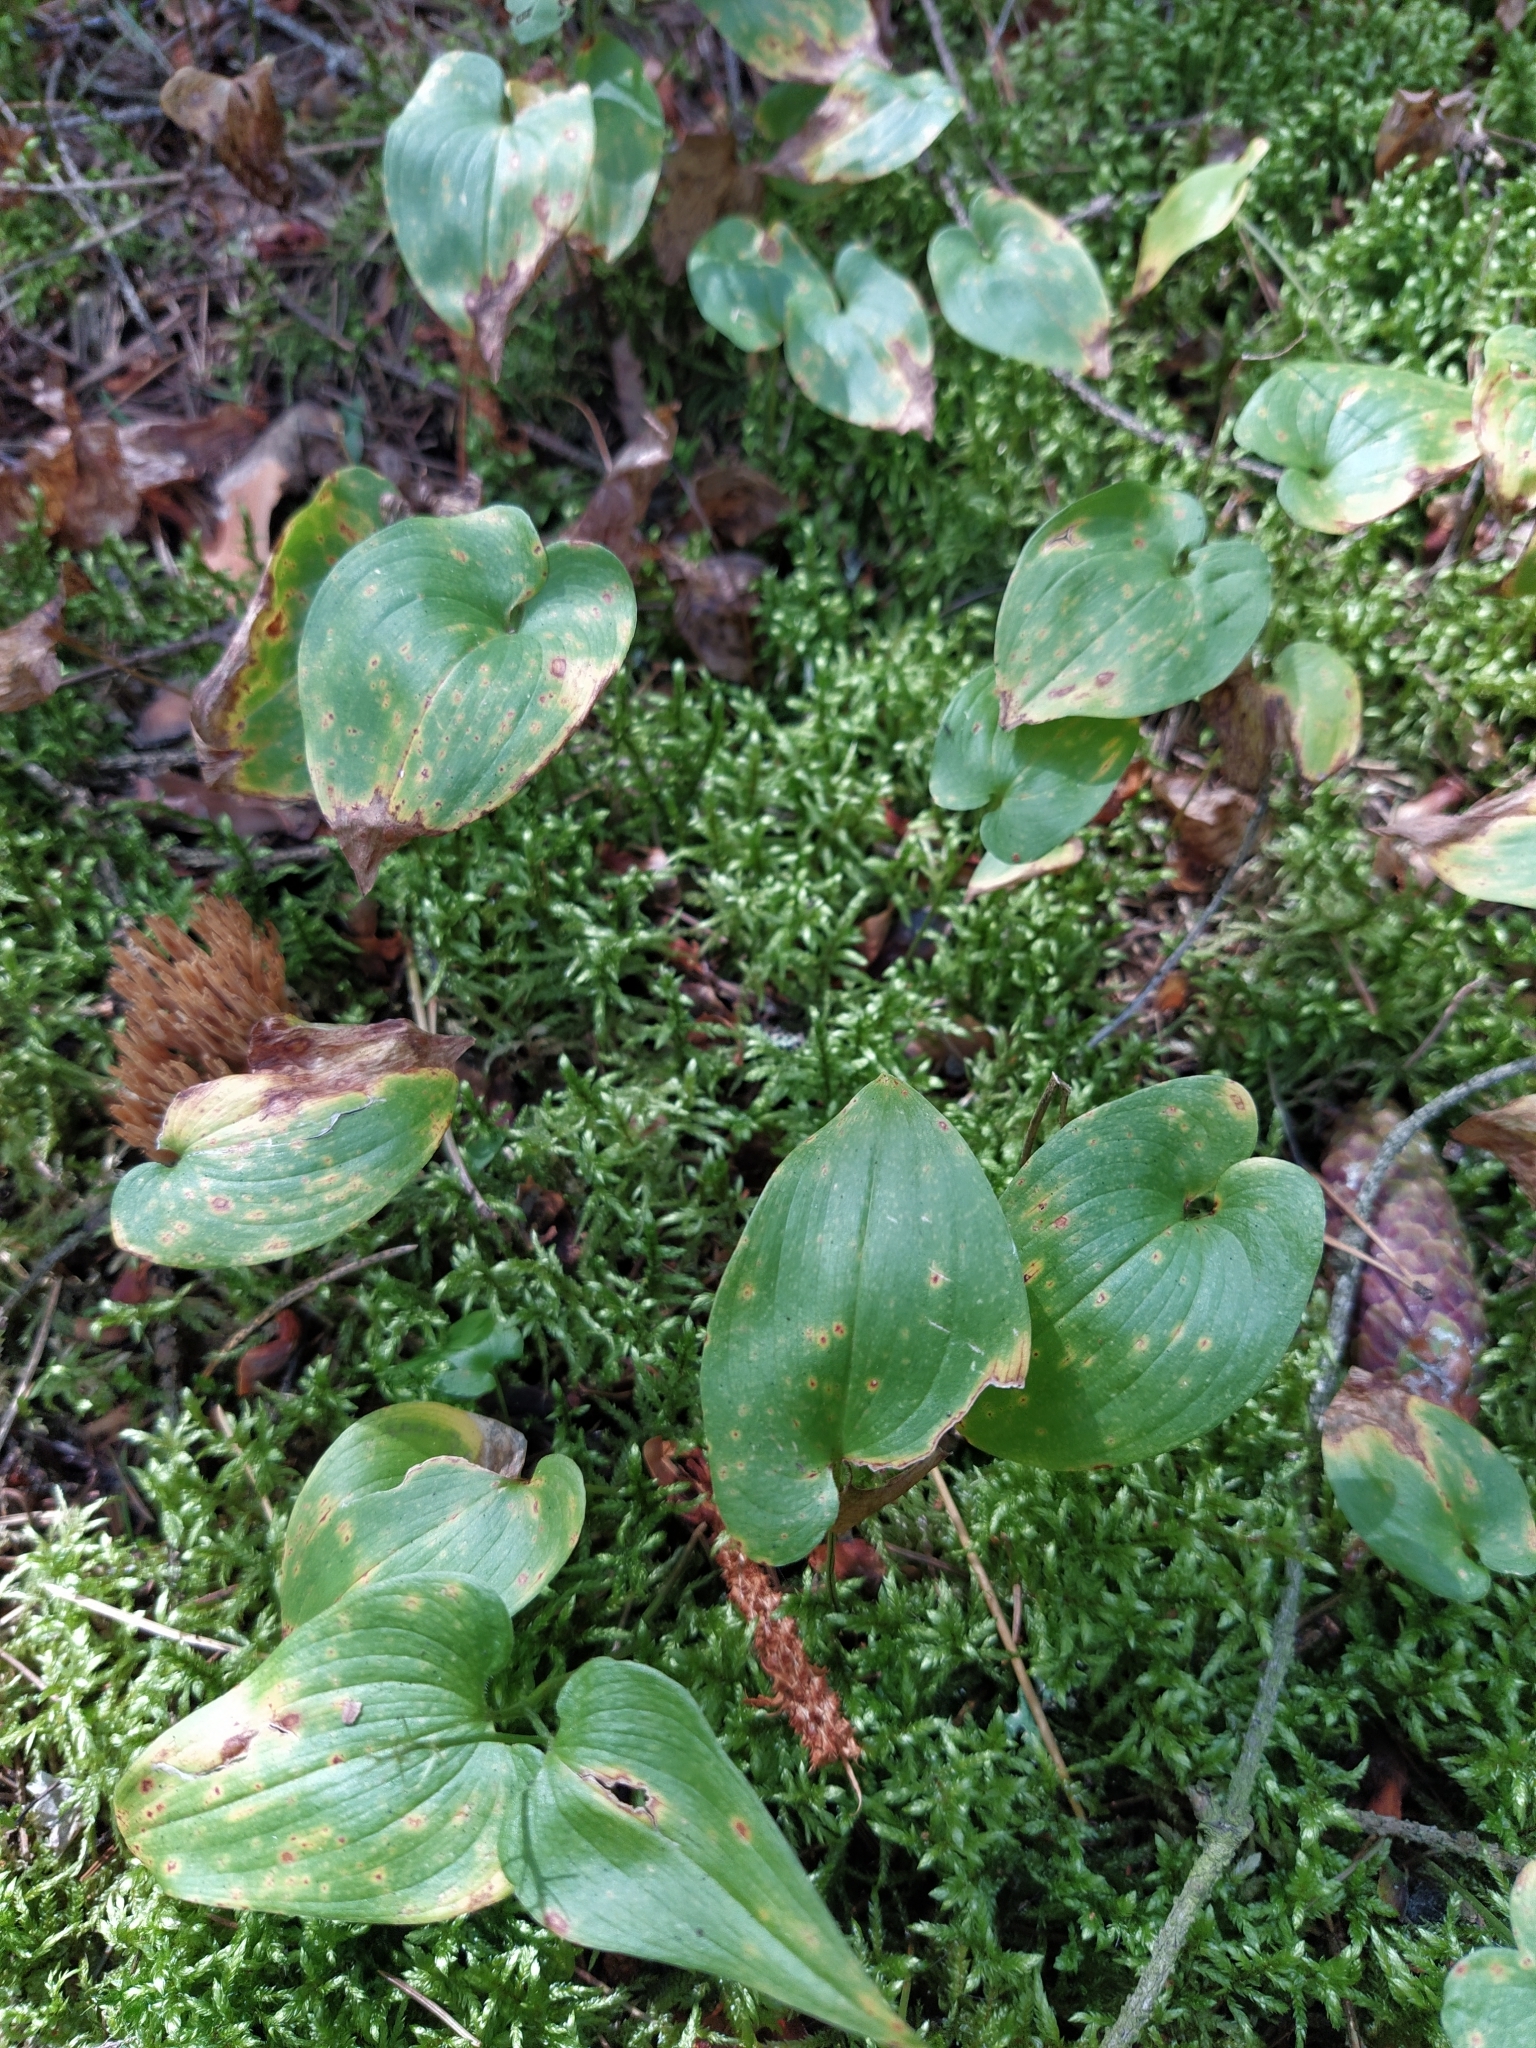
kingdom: Plantae
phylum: Tracheophyta
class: Liliopsida
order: Asparagales
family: Asparagaceae
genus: Maianthemum
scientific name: Maianthemum bifolium
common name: May lily
